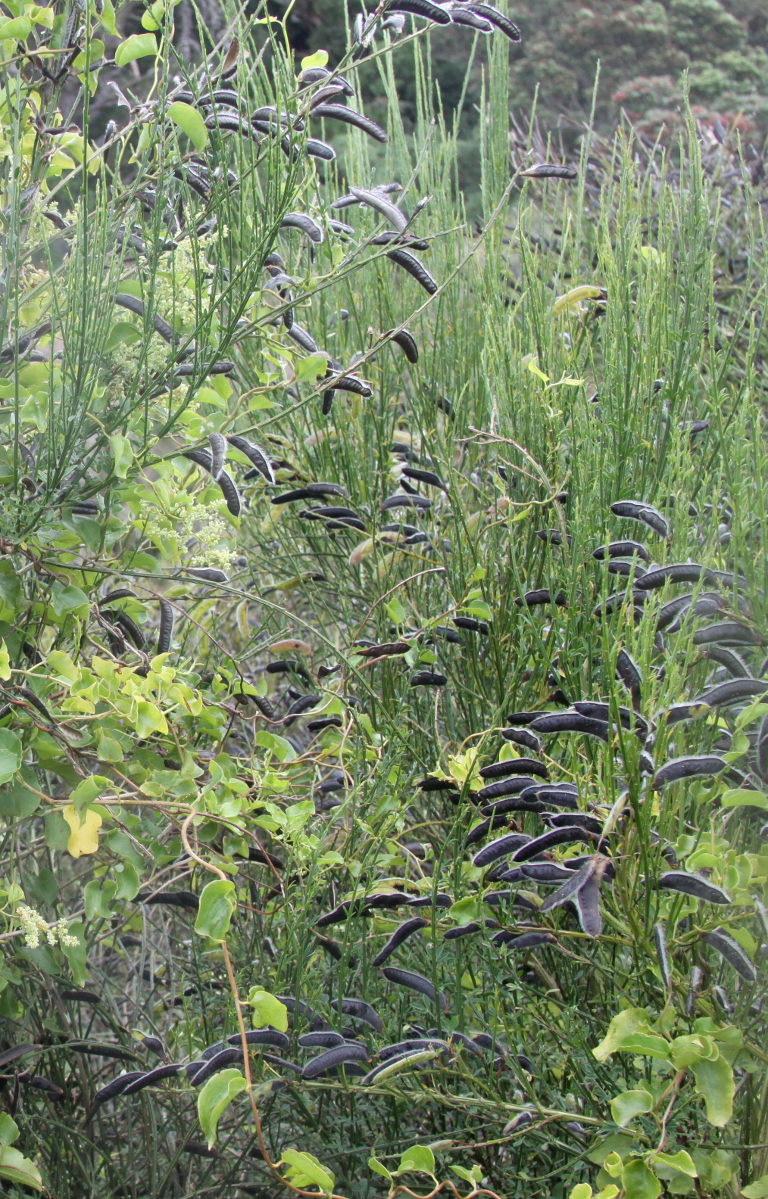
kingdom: Plantae
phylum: Tracheophyta
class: Magnoliopsida
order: Fabales
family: Fabaceae
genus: Cytisus
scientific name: Cytisus scoparius
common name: Scotch broom
